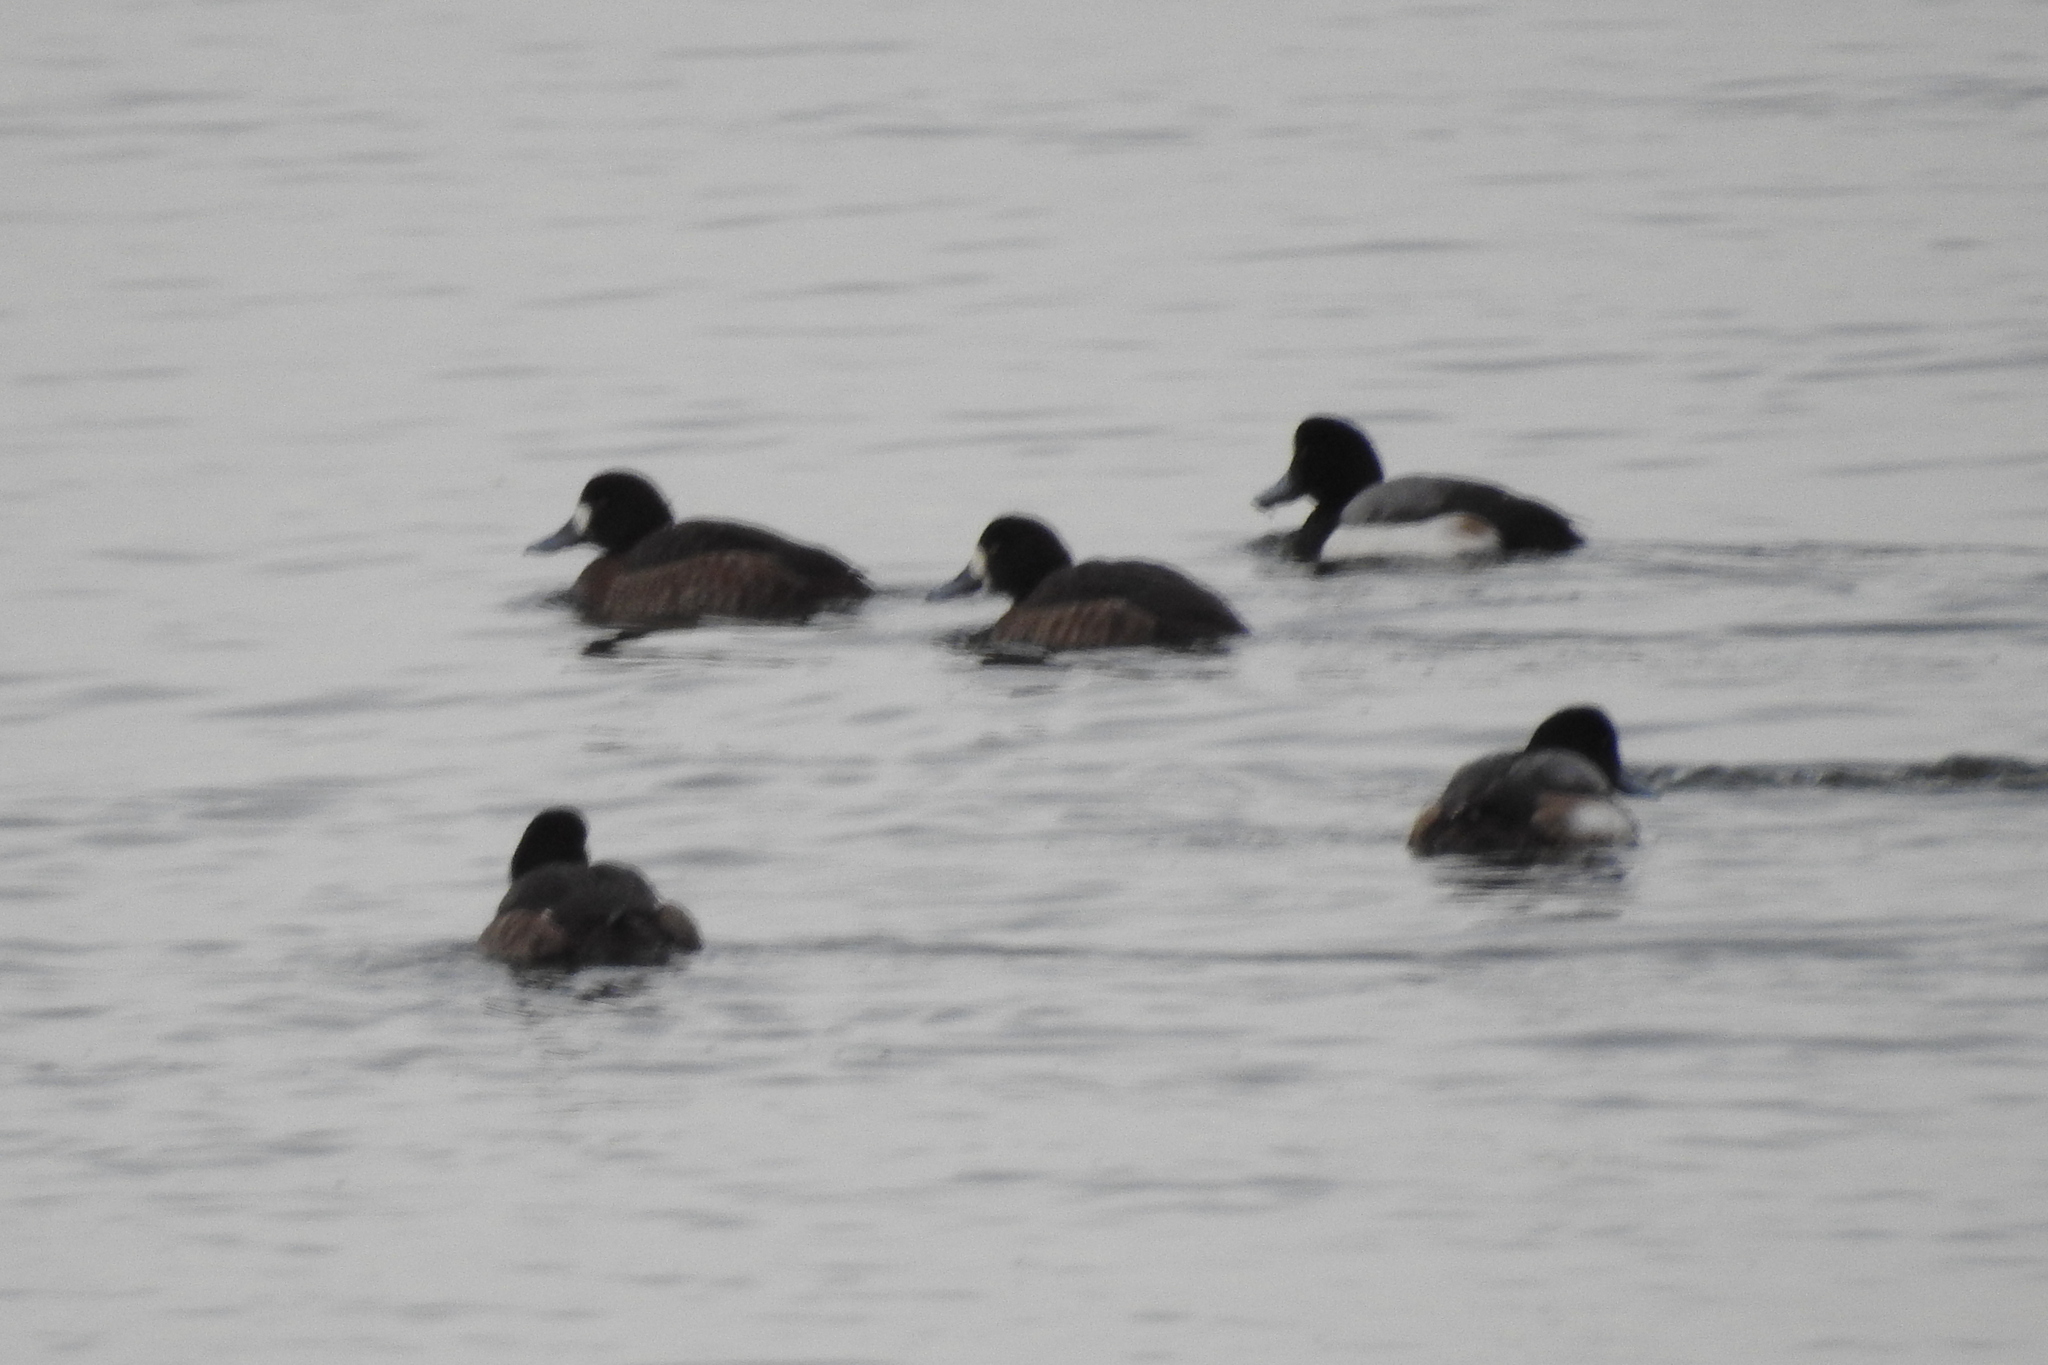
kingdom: Animalia
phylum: Chordata
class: Aves
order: Anseriformes
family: Anatidae
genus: Aythya
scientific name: Aythya marila
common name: Greater scaup
